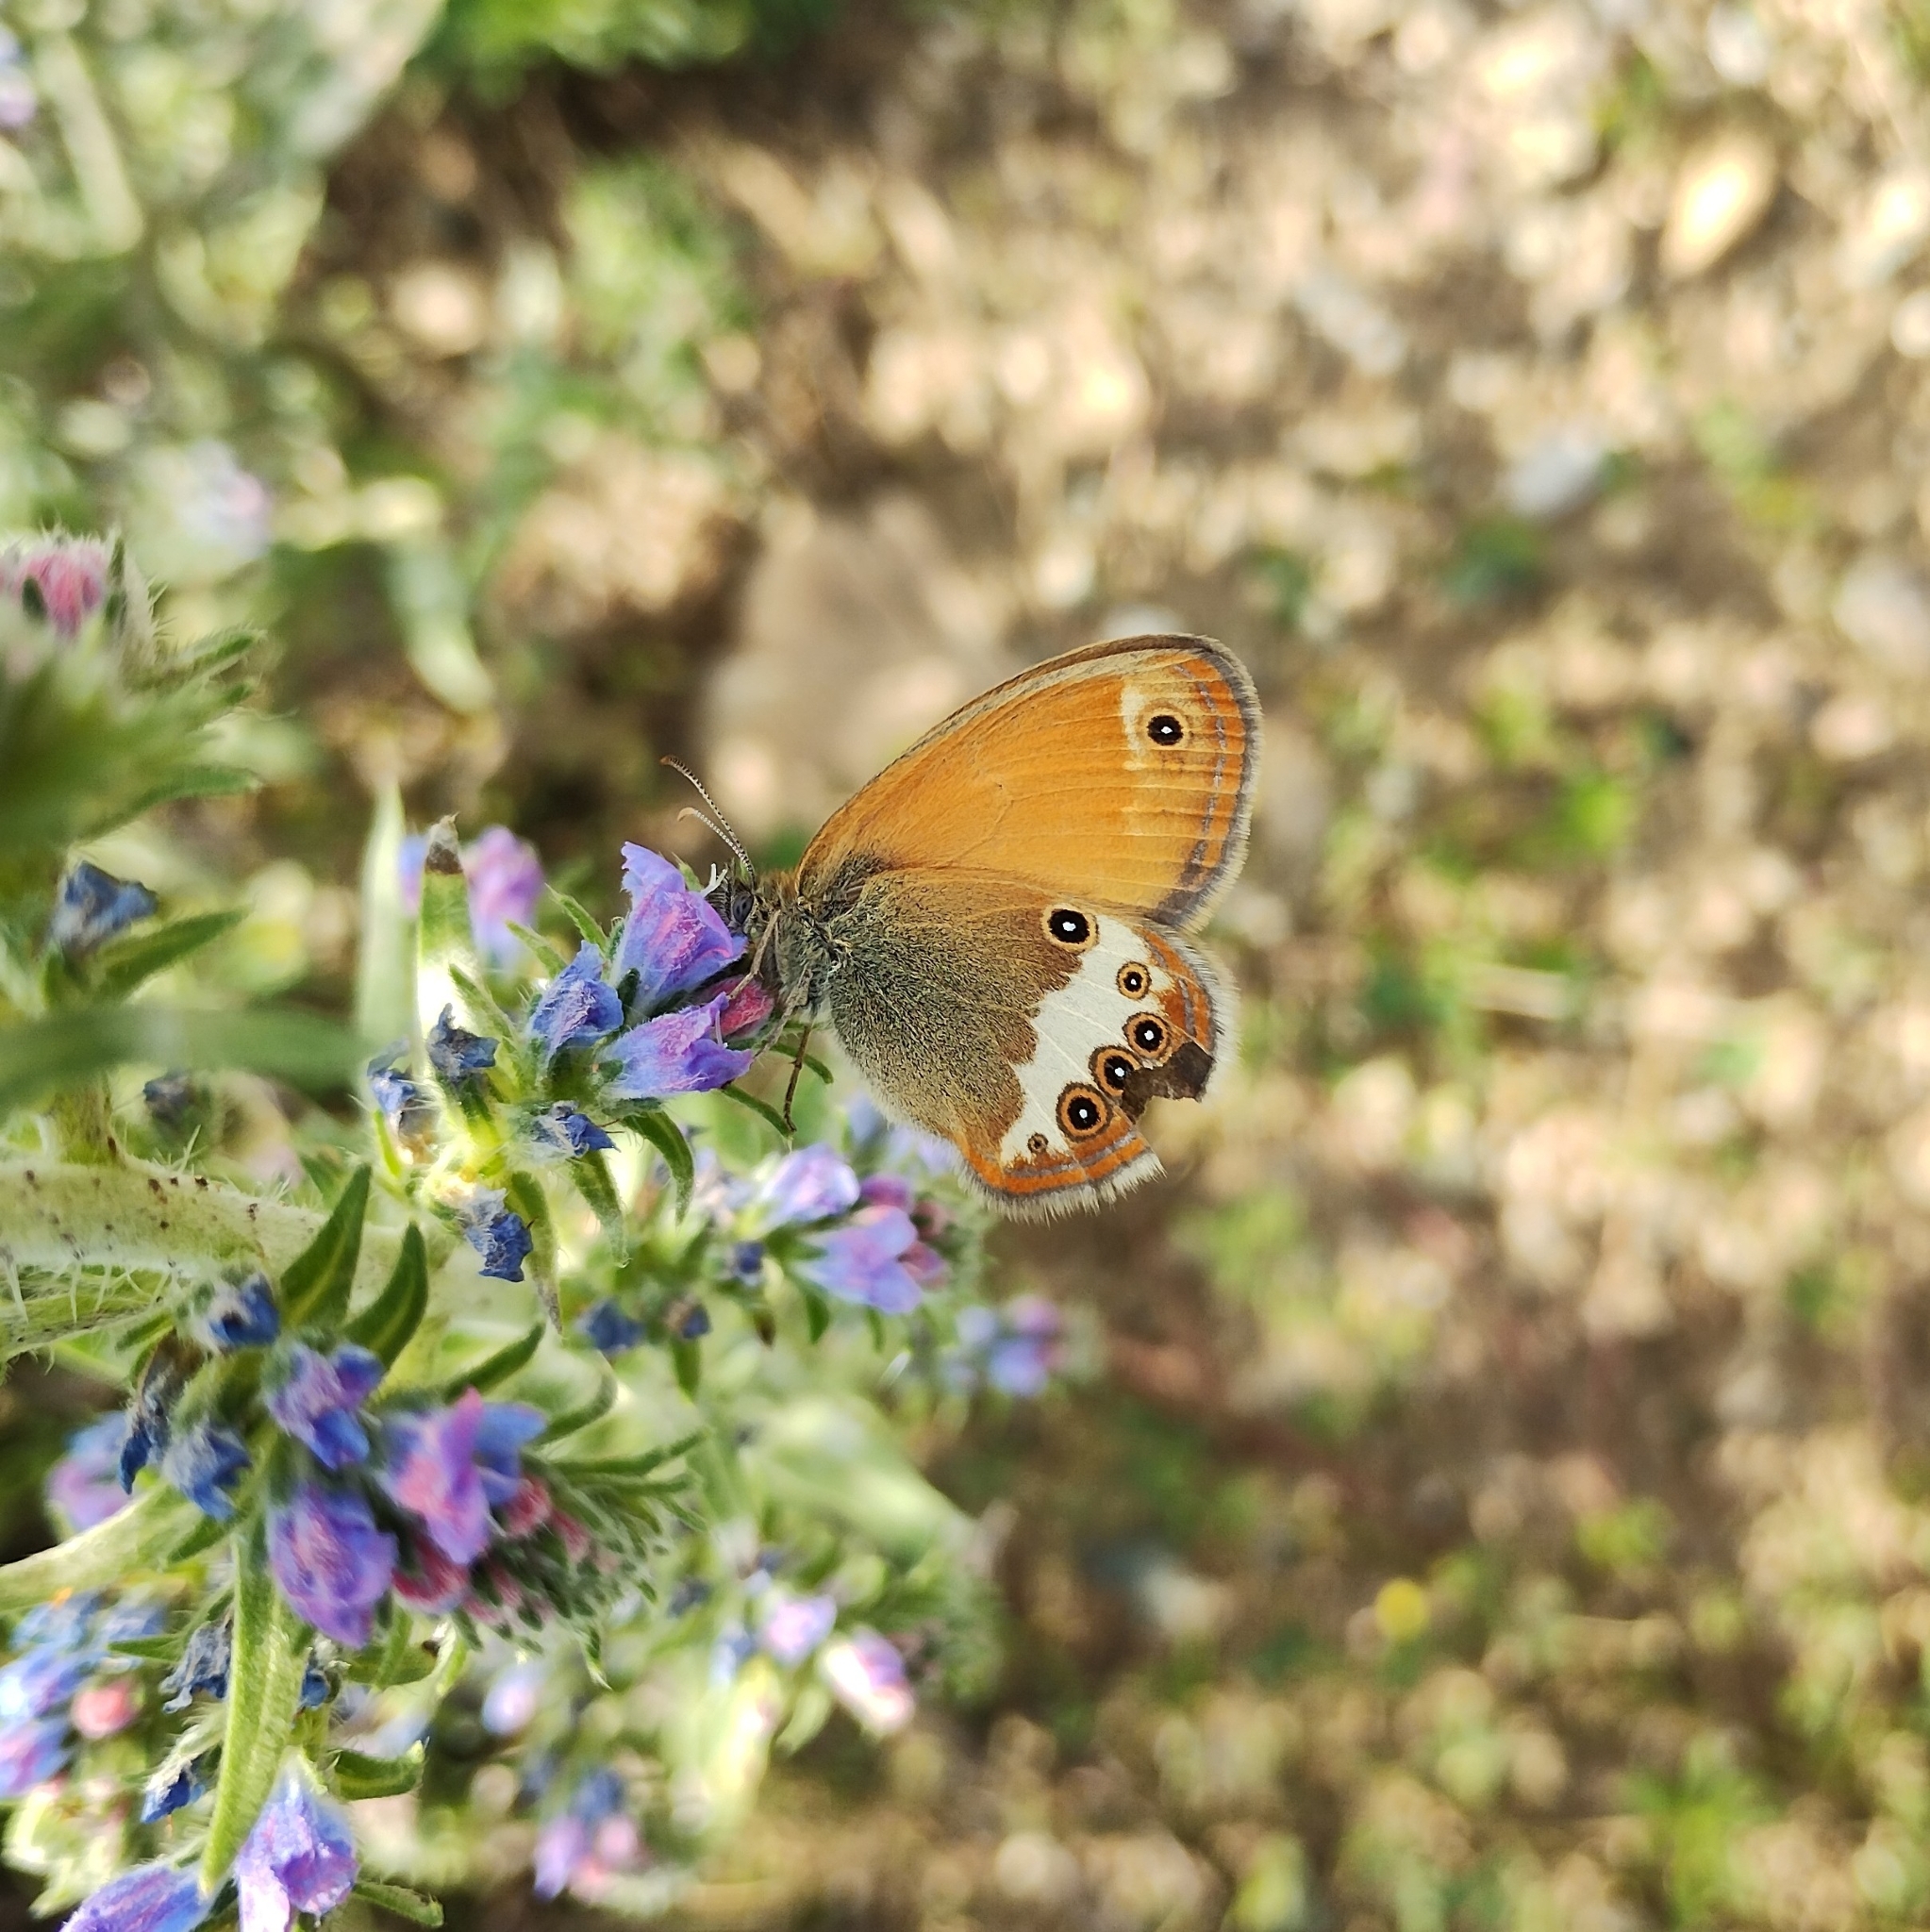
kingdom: Animalia
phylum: Arthropoda
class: Insecta
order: Lepidoptera
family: Nymphalidae
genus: Coenonympha
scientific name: Coenonympha arcania
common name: Pearly heath
